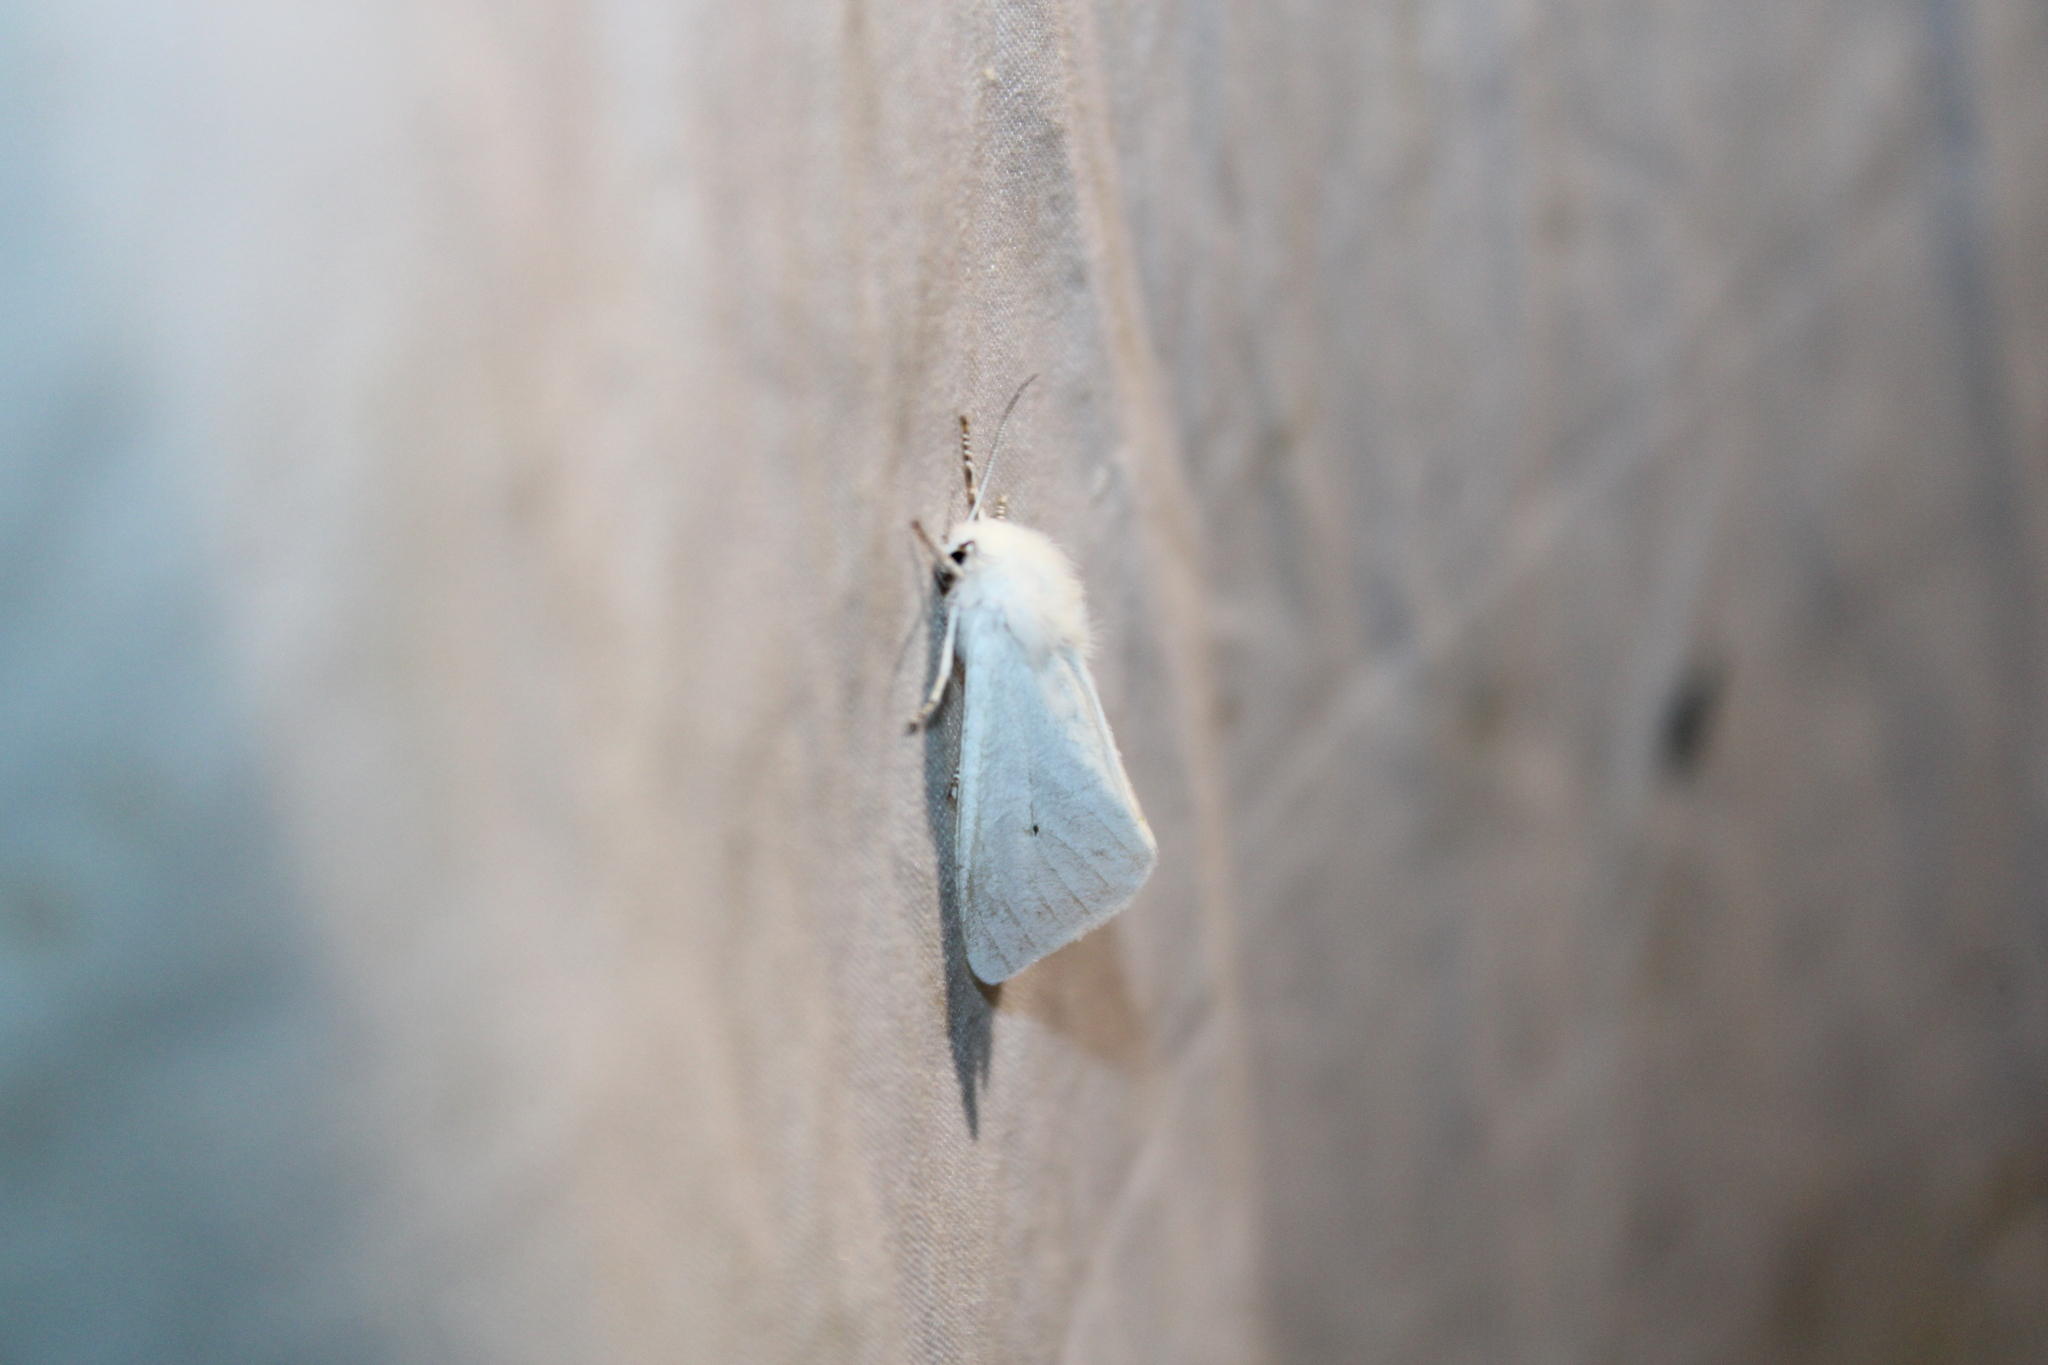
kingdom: Animalia
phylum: Arthropoda
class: Insecta
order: Lepidoptera
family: Erebidae
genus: Spilosoma
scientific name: Spilosoma virginica
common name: Virginia tiger moth
